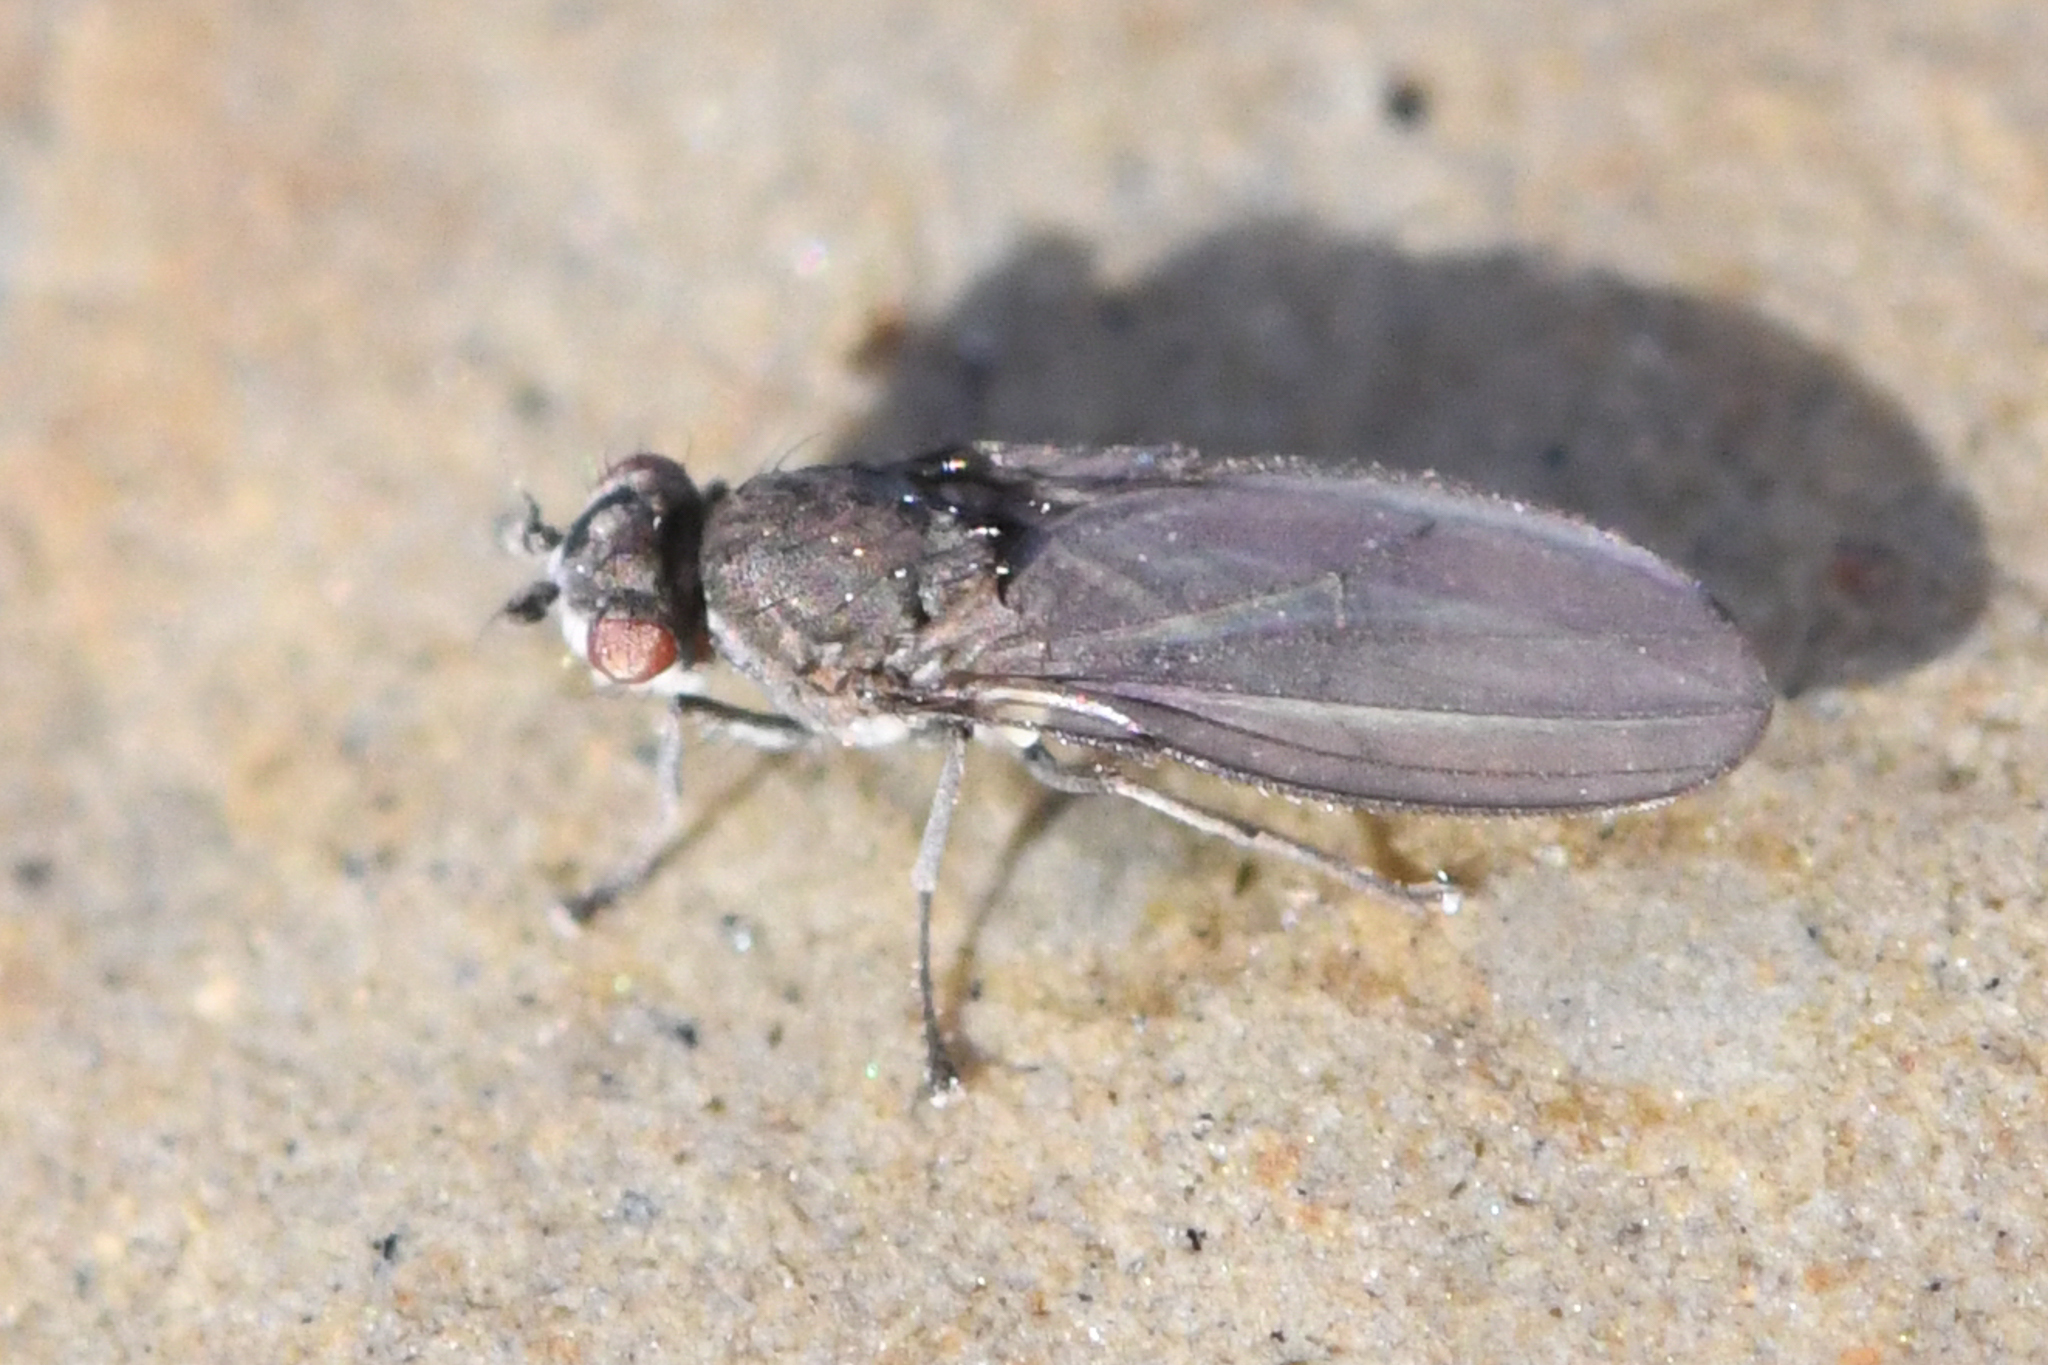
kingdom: Animalia
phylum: Arthropoda
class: Insecta
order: Diptera
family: Canacidae
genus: Canaceoides
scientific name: Canaceoides nudatus
